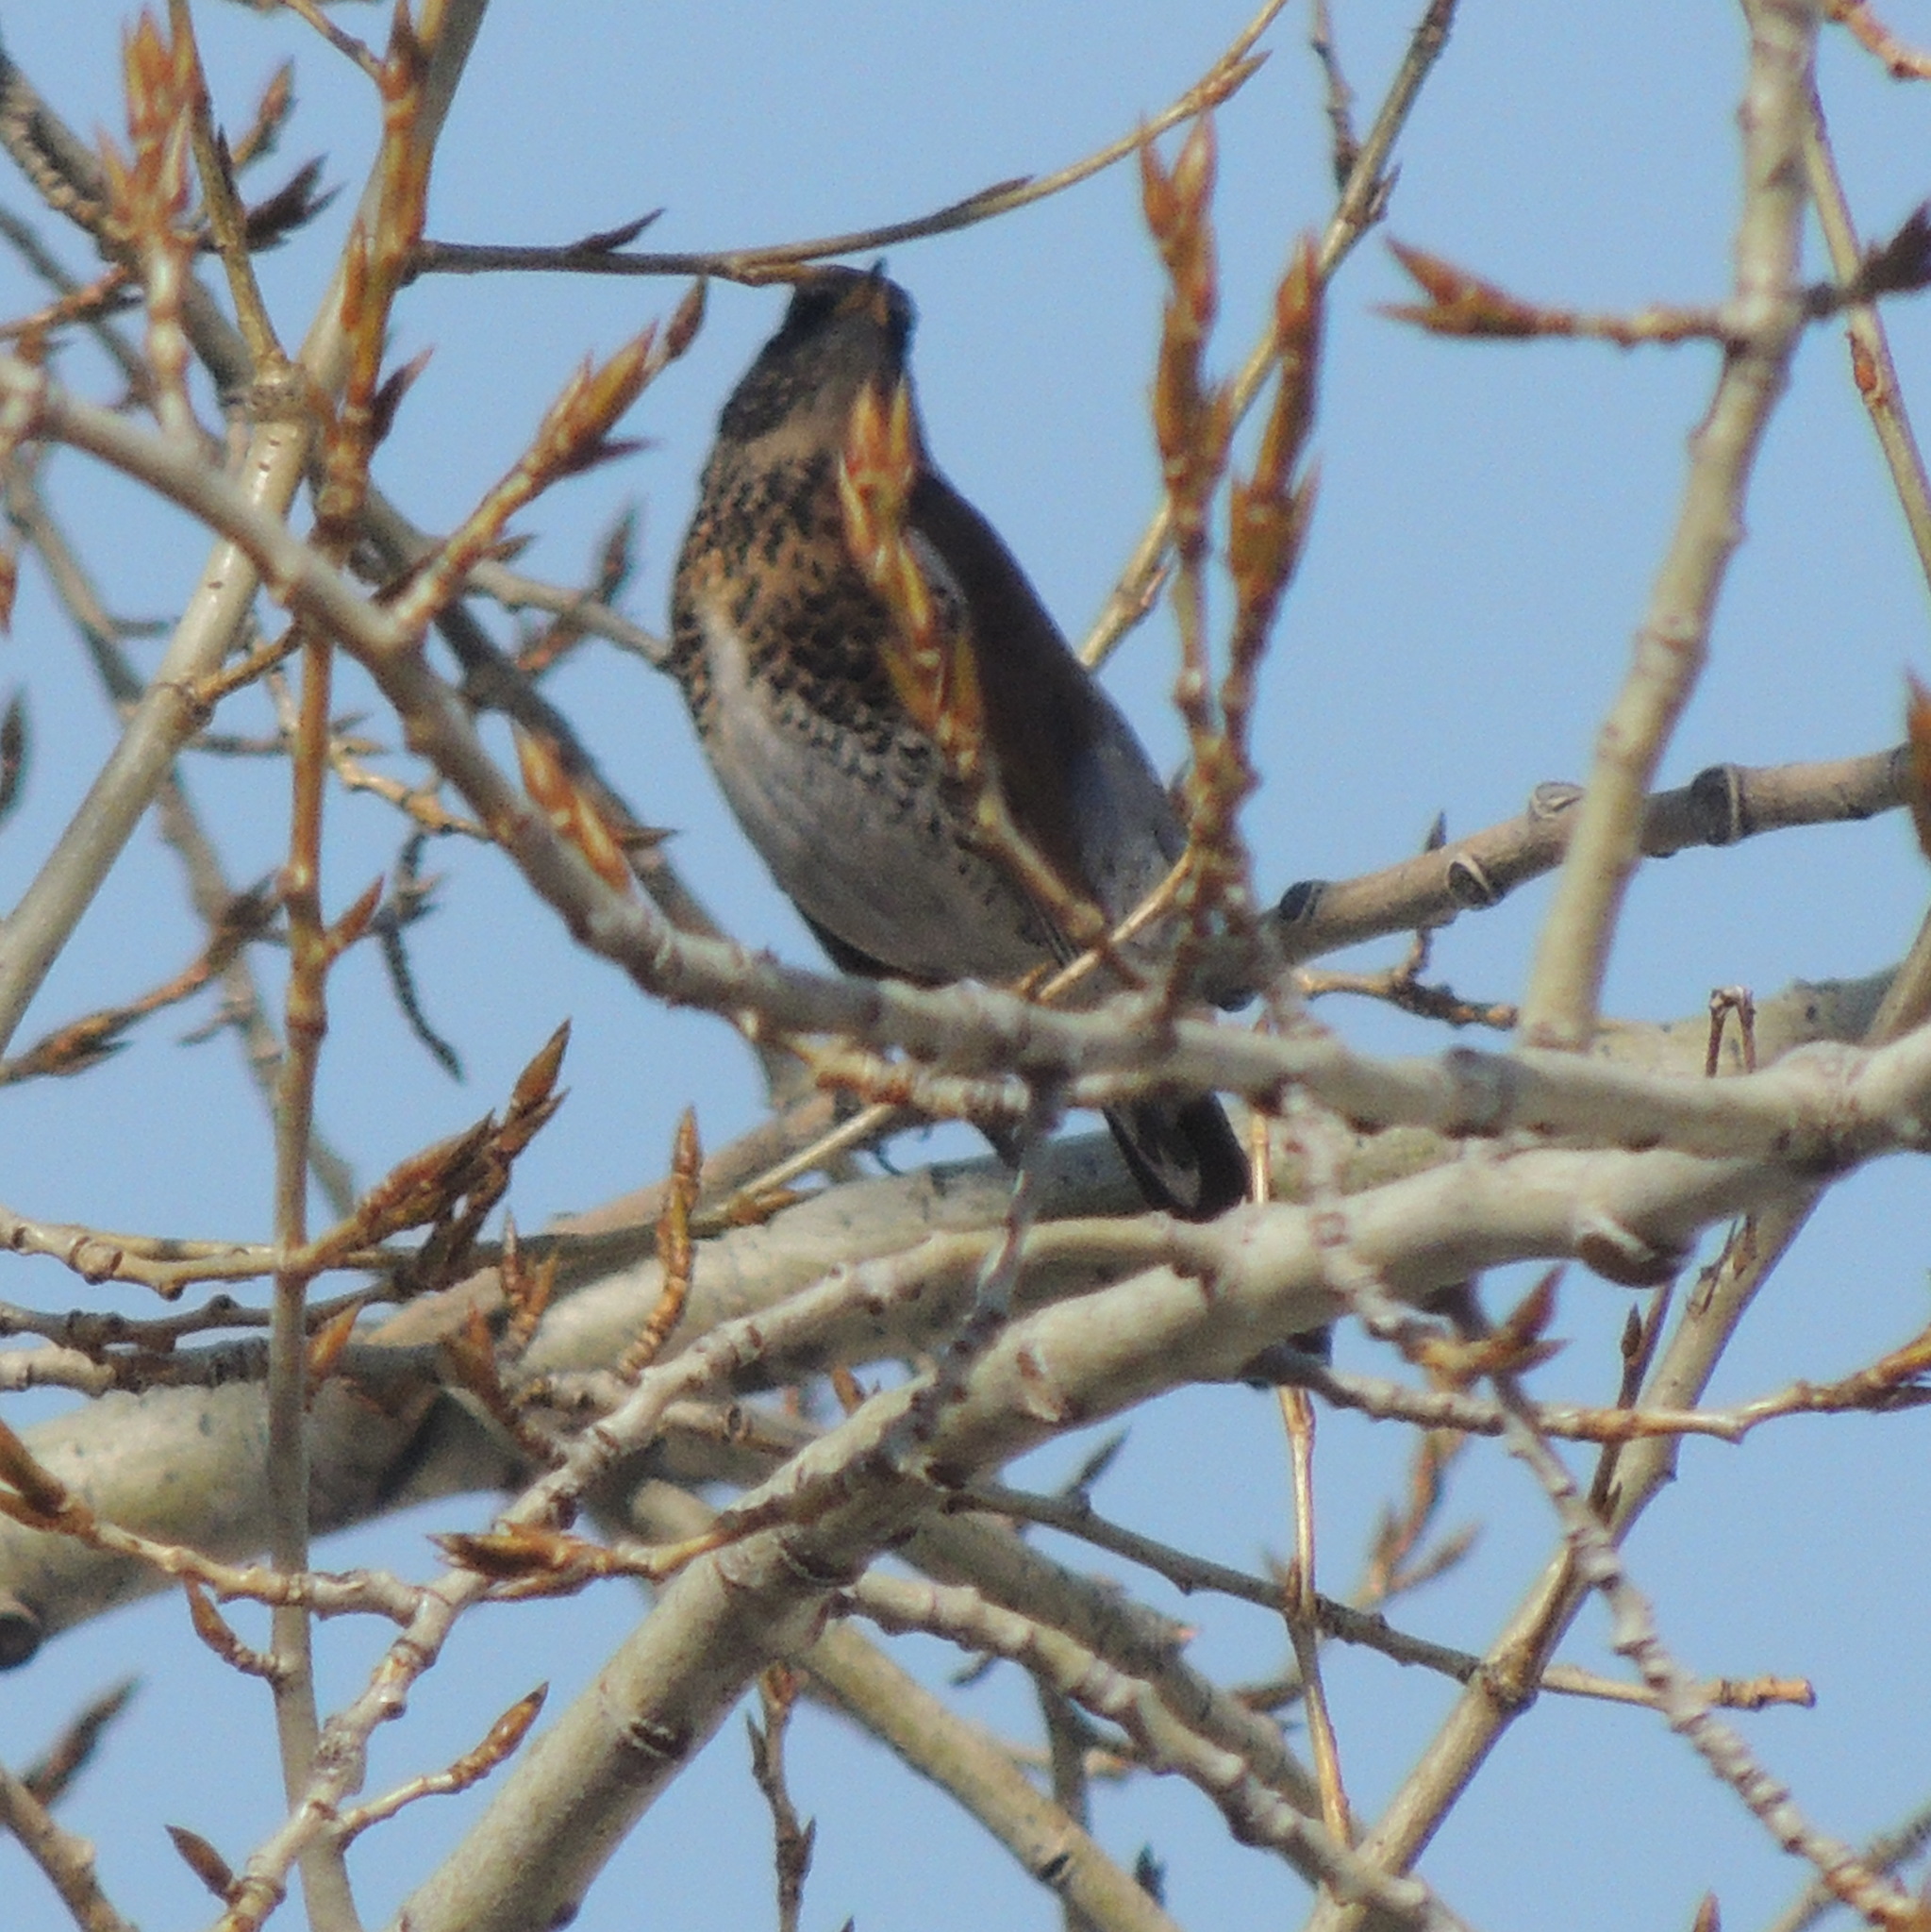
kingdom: Animalia
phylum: Chordata
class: Aves
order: Passeriformes
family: Turdidae
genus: Turdus
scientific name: Turdus pilaris
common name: Fieldfare
